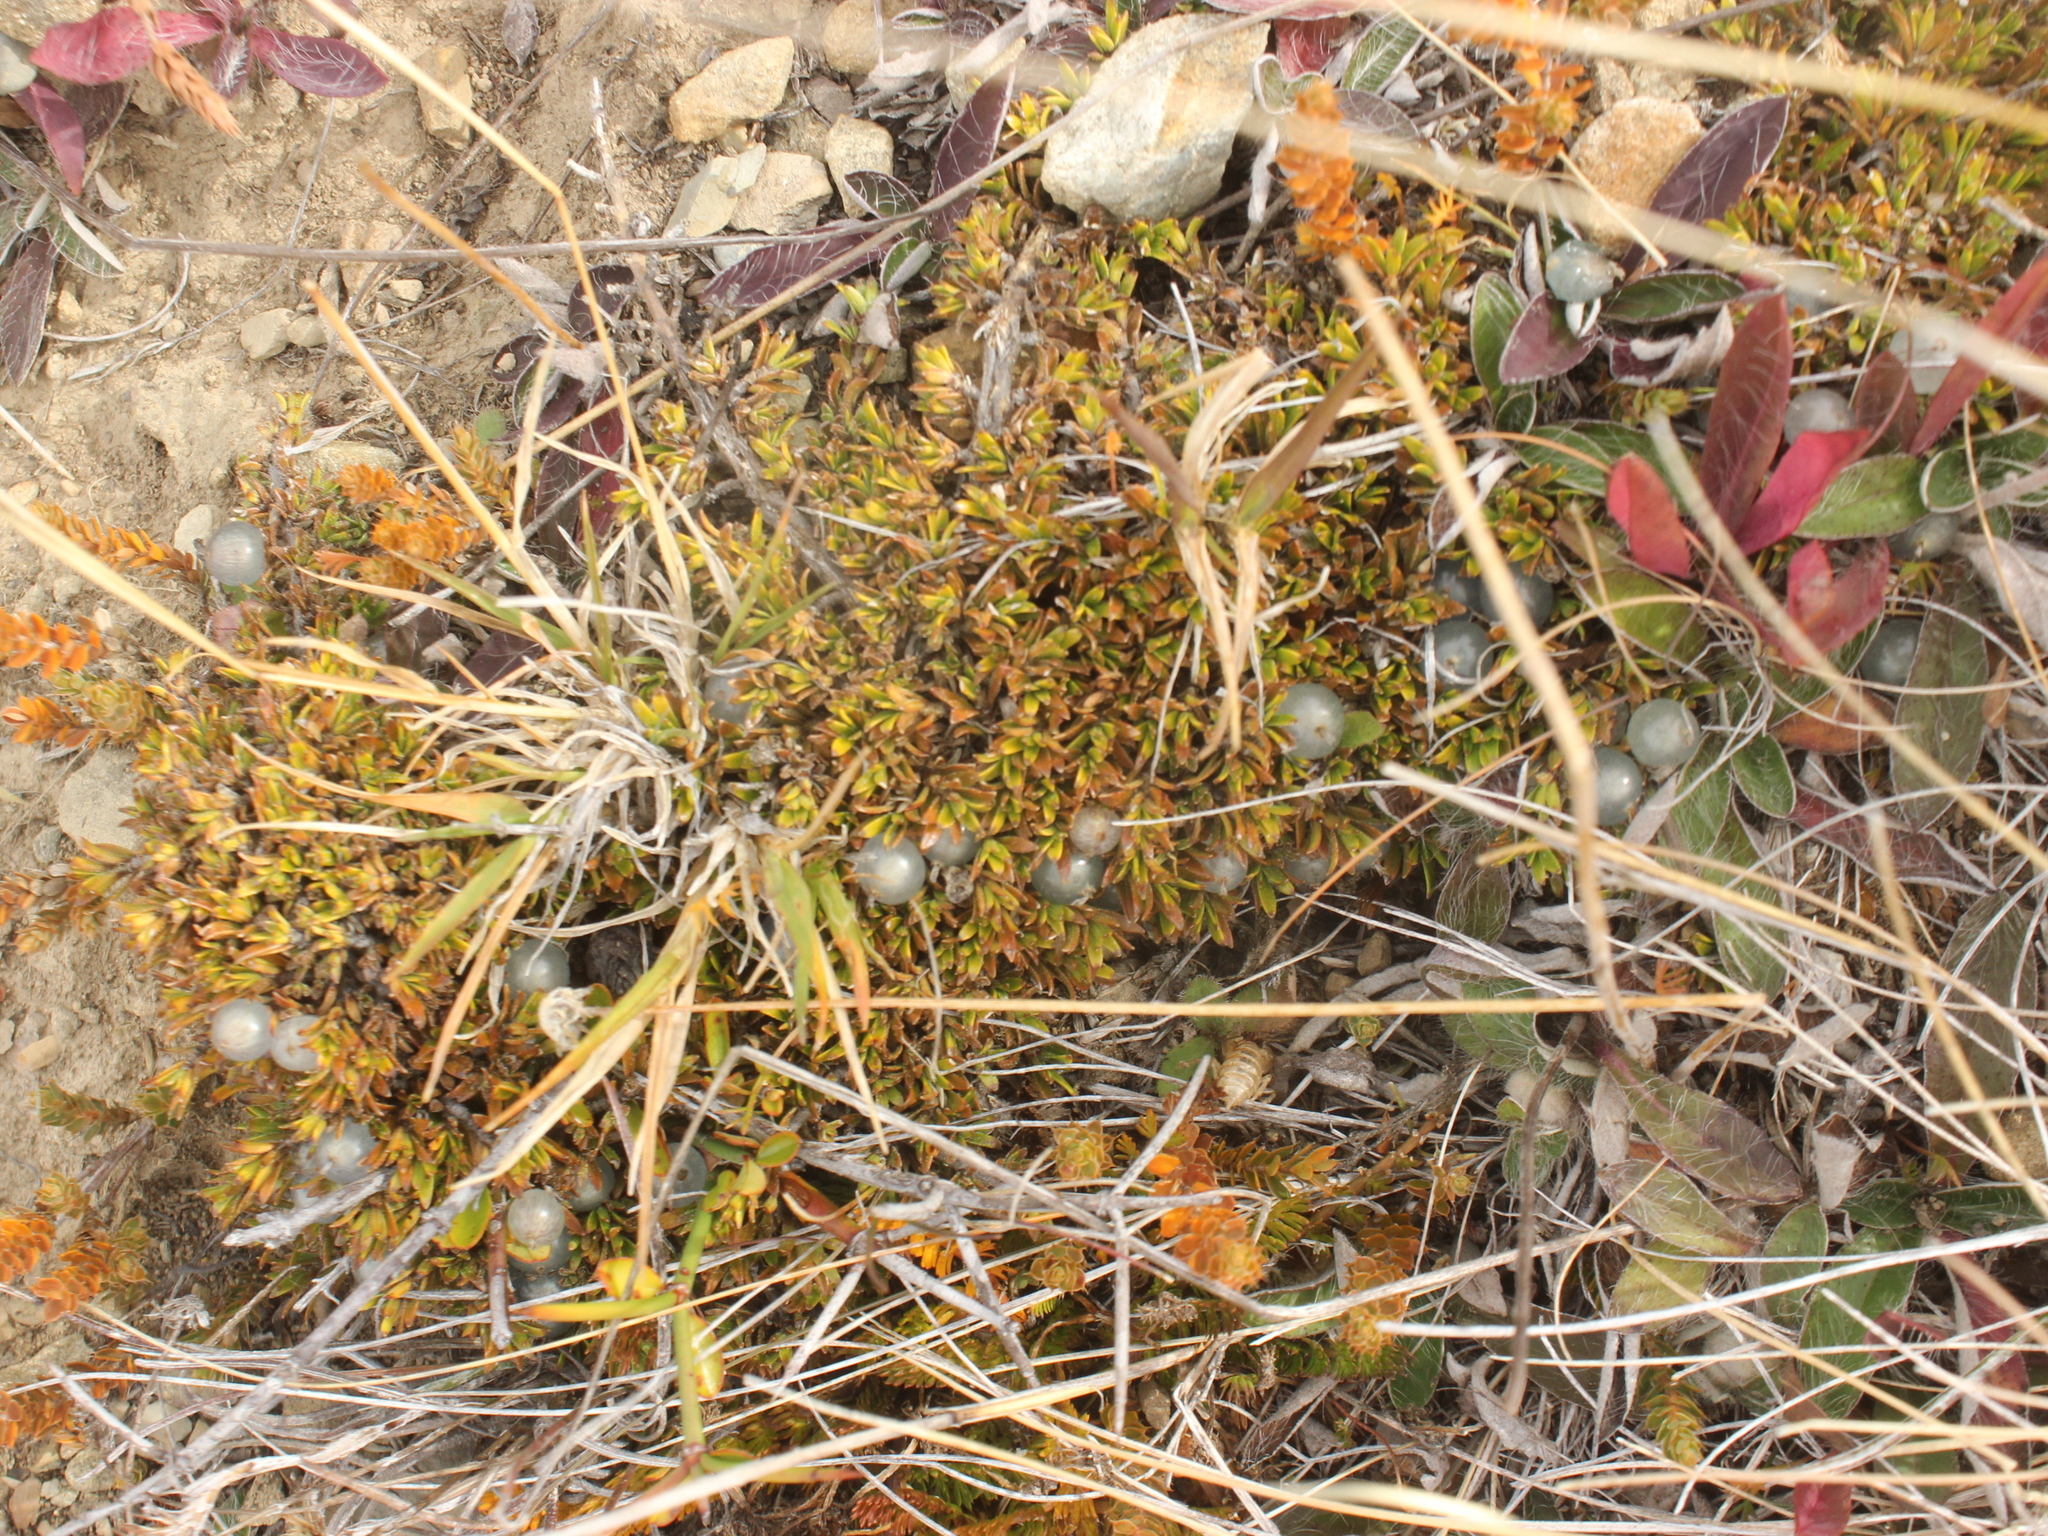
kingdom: Plantae
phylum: Tracheophyta
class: Magnoliopsida
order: Gentianales
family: Rubiaceae
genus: Coprosma
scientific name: Coprosma petriei
